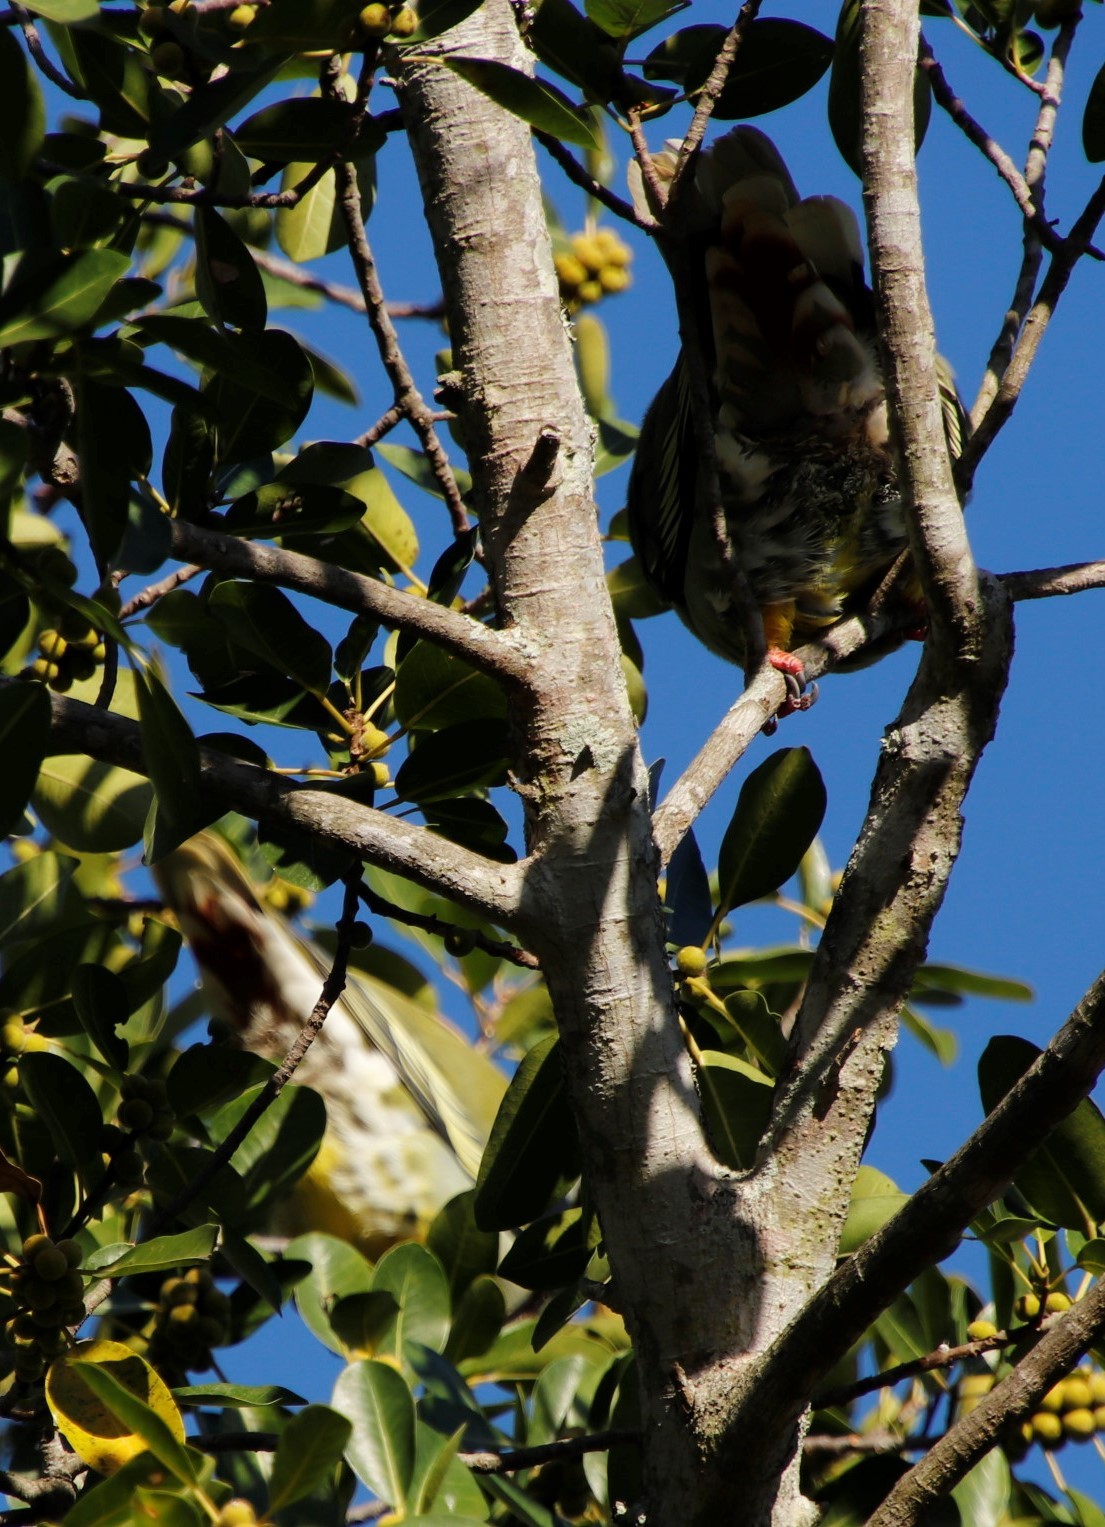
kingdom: Animalia
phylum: Chordata
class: Aves
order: Columbiformes
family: Columbidae
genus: Treron
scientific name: Treron calvus
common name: African green pigeon
